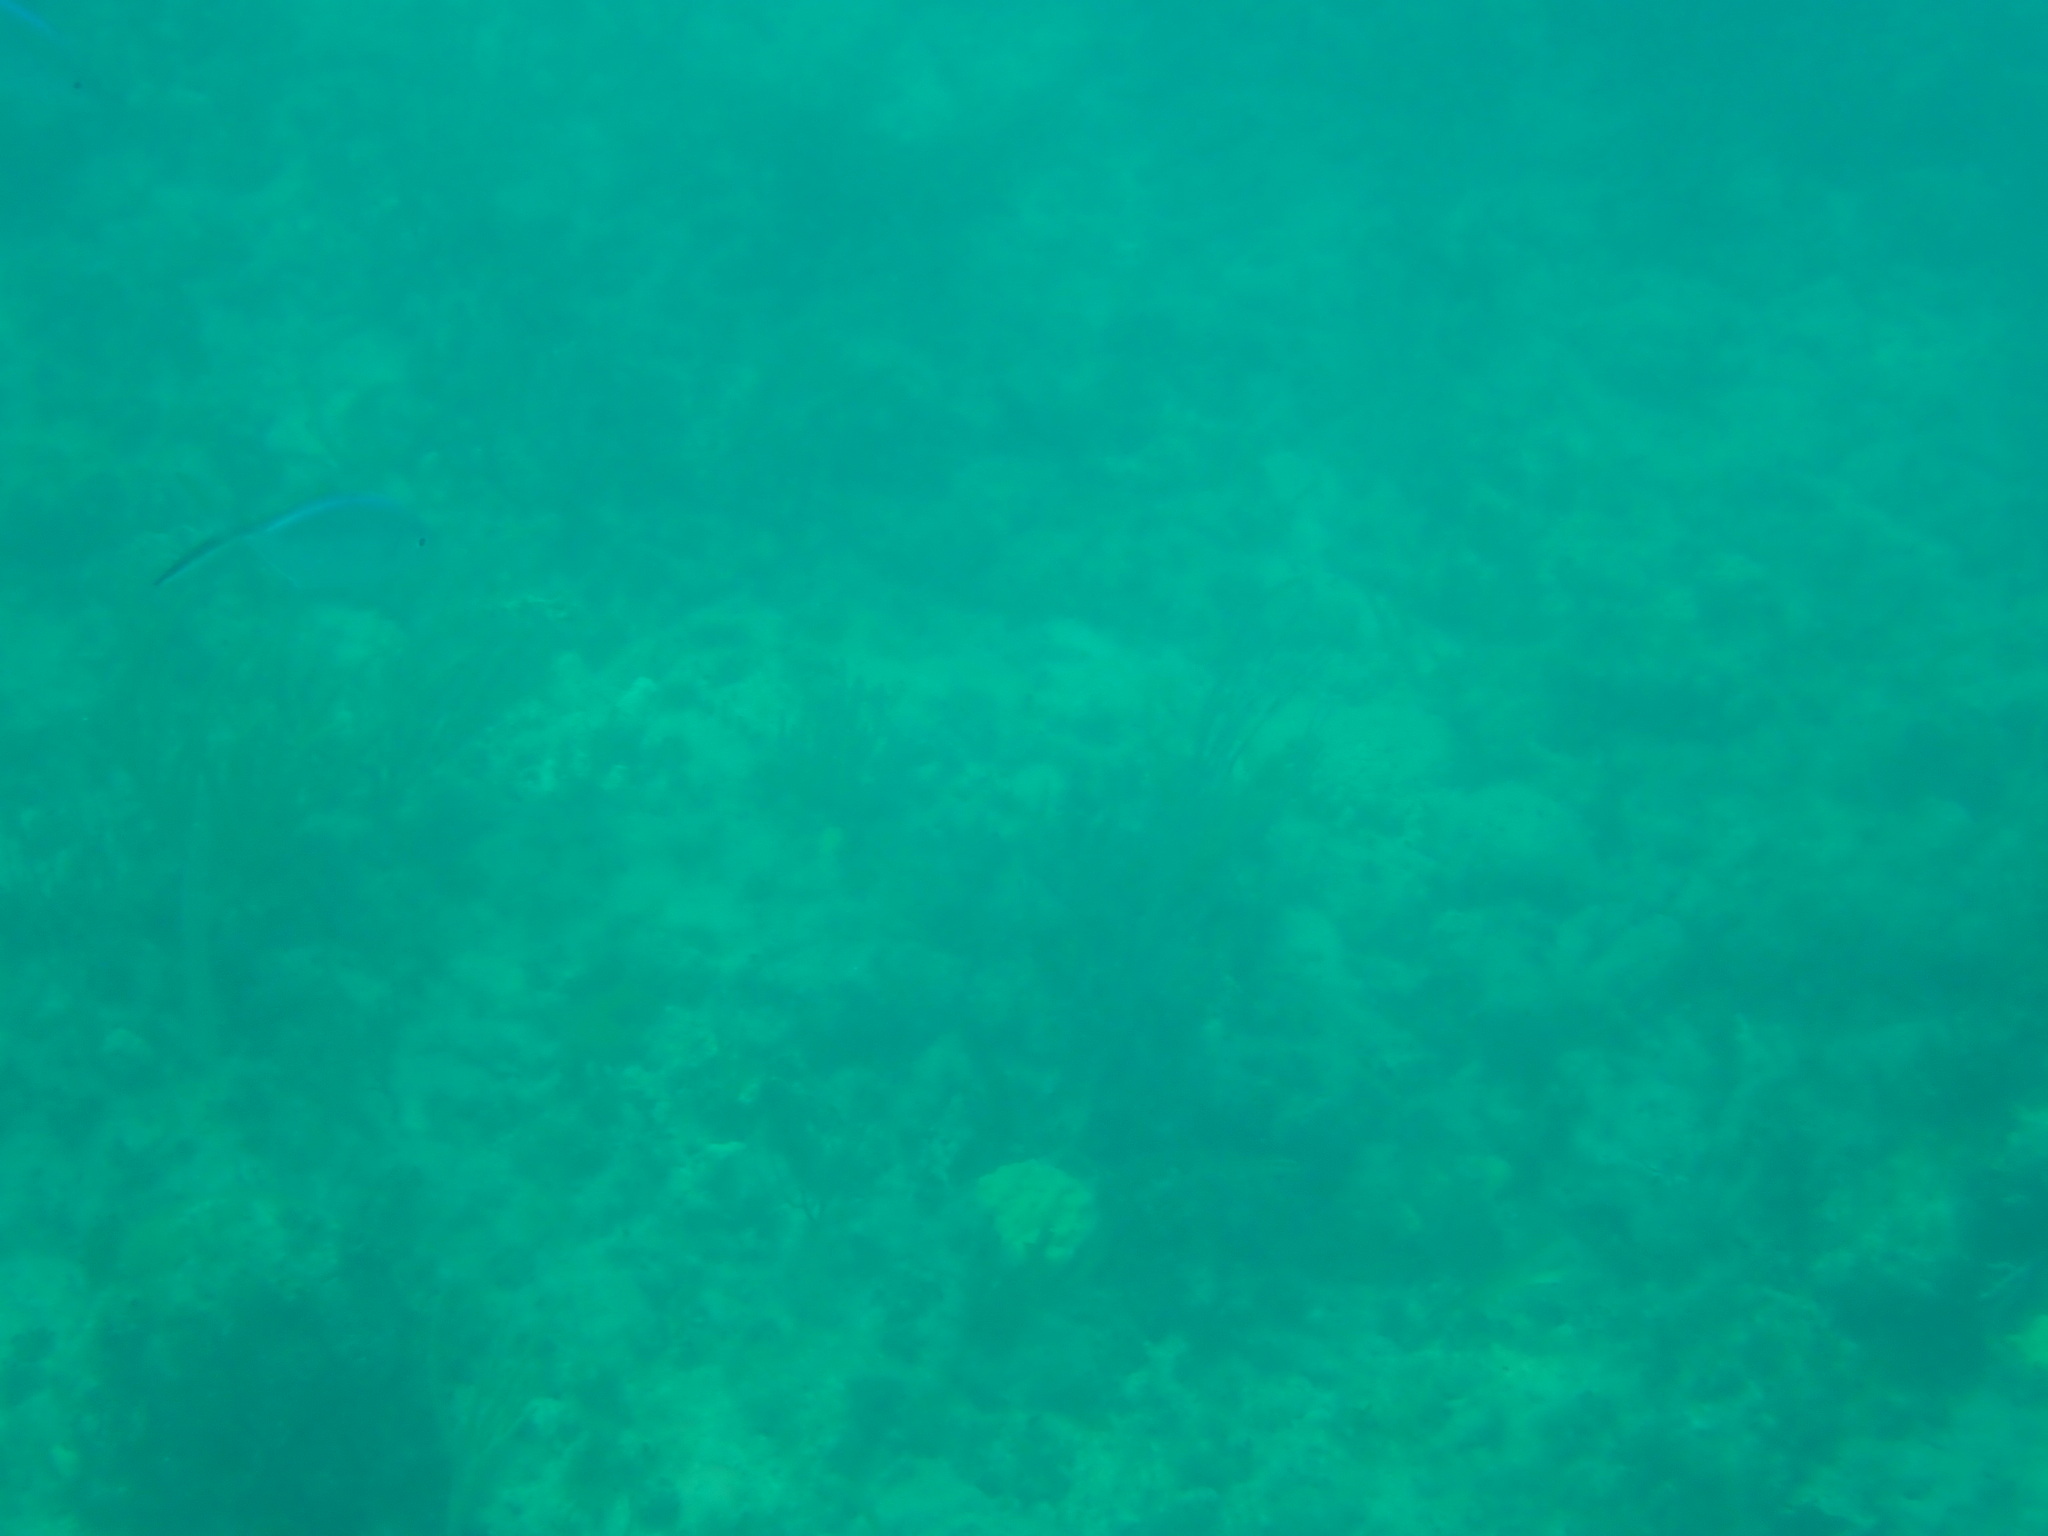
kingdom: Animalia
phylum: Chordata
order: Perciformes
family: Carangidae
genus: Caranx
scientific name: Caranx ruber
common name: Bar jack
